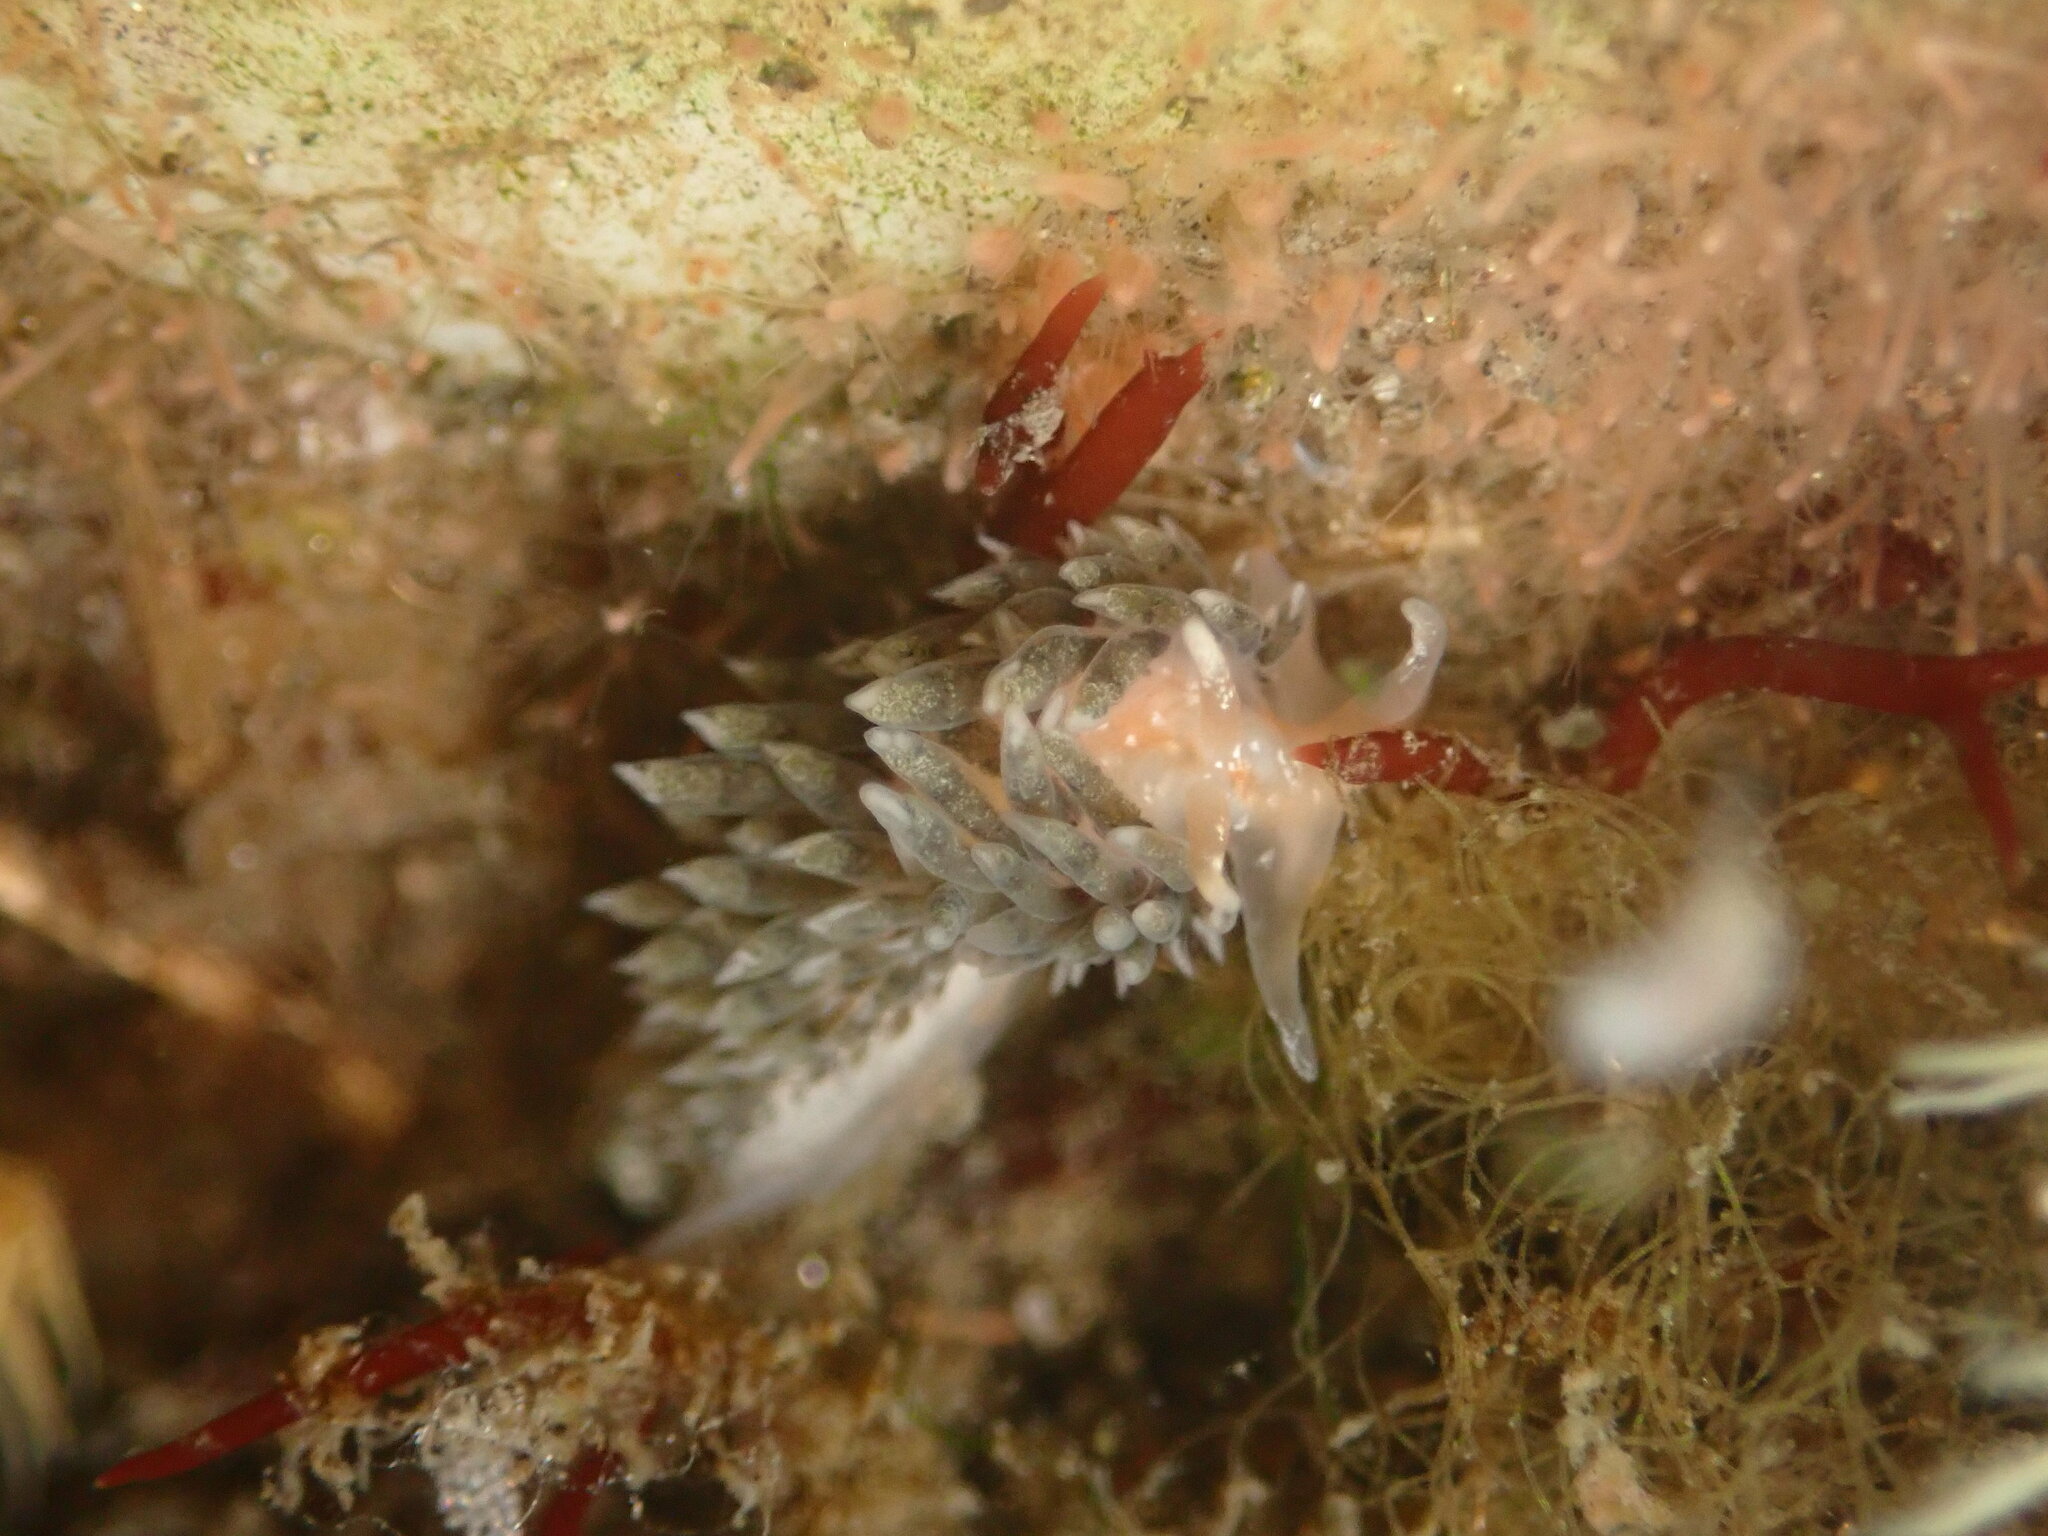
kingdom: Animalia
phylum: Mollusca
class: Gastropoda
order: Nudibranchia
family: Facelinidae
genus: Emarcusia
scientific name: Emarcusia morroensis
